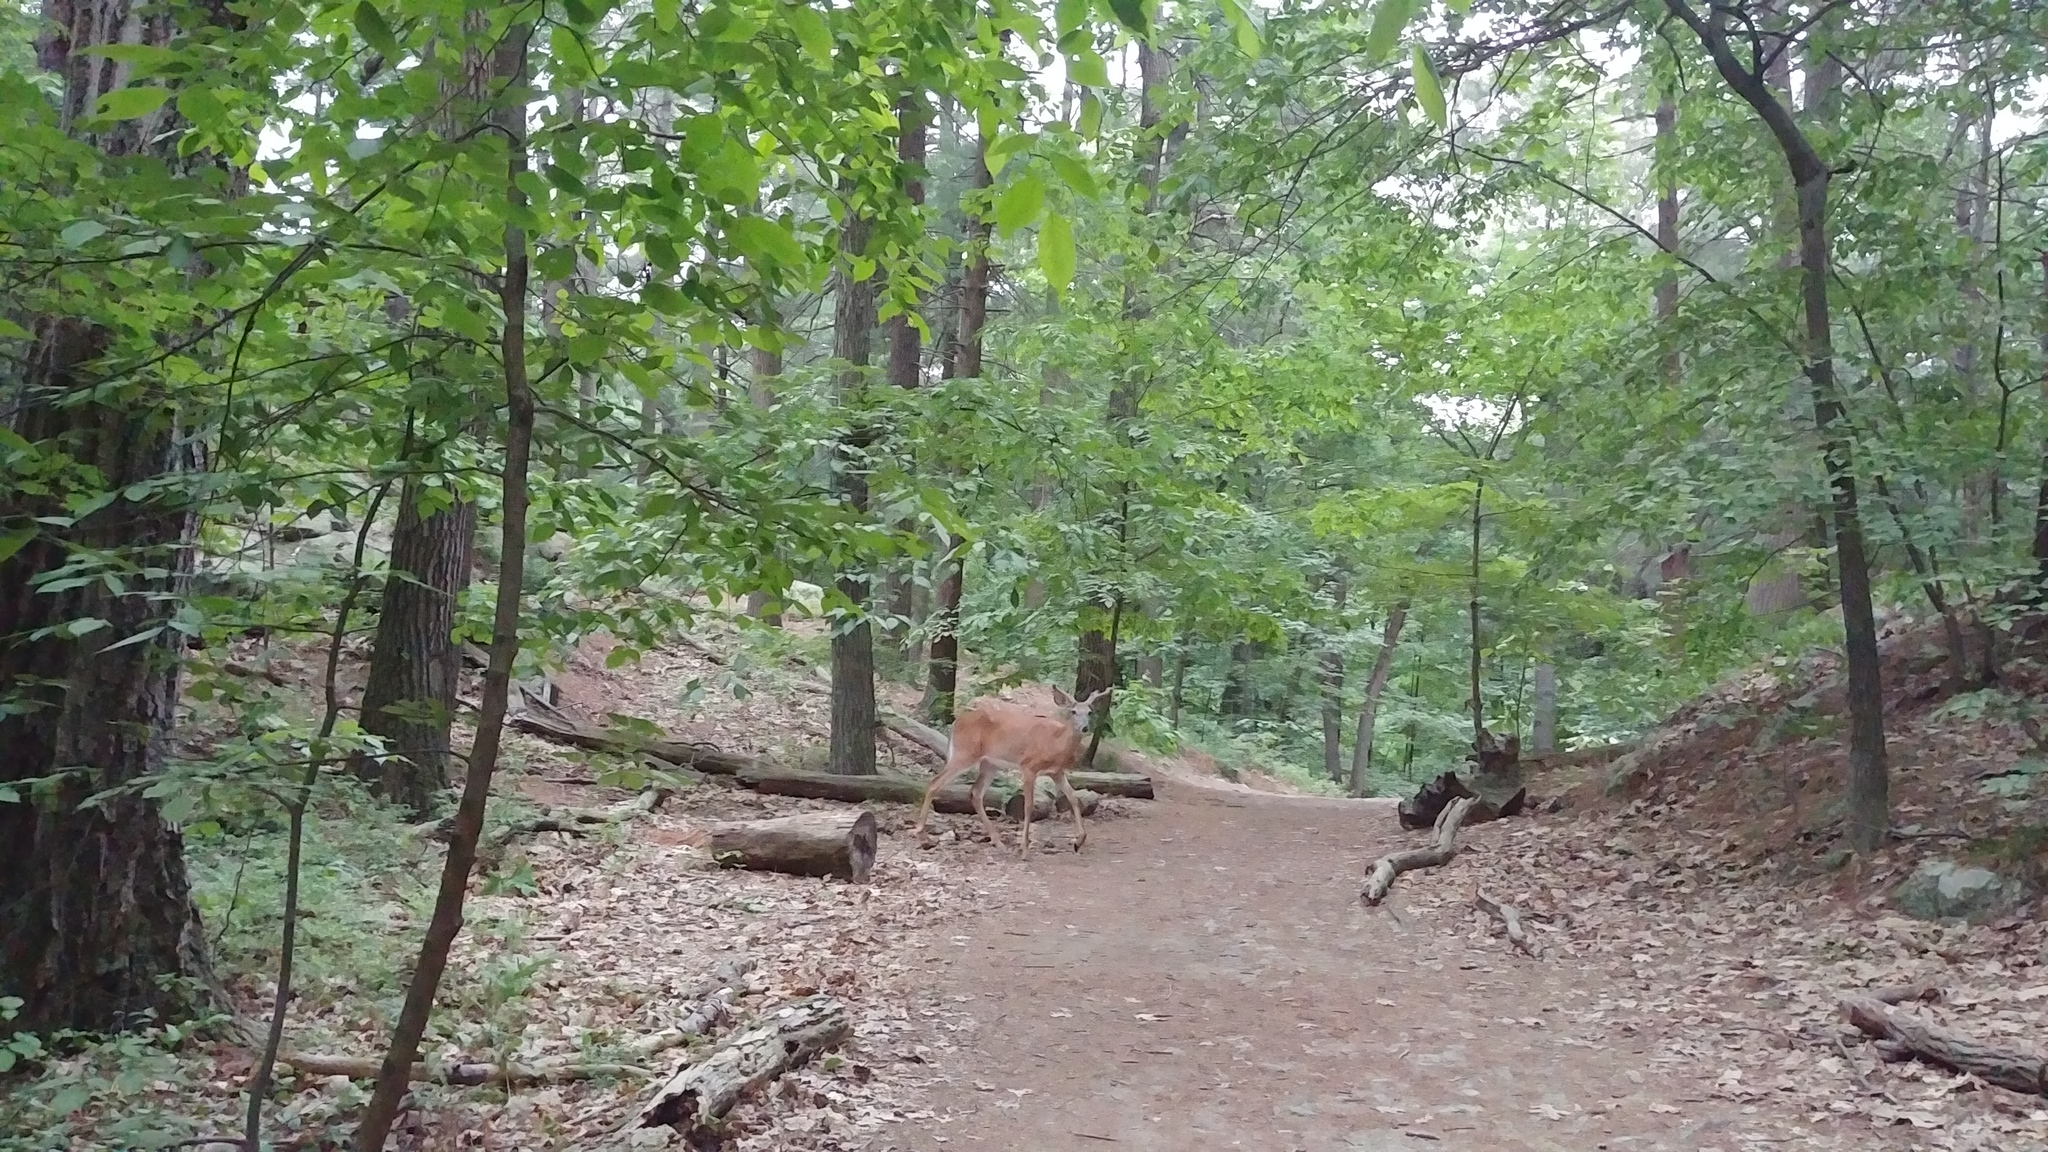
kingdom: Animalia
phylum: Chordata
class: Mammalia
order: Artiodactyla
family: Cervidae
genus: Odocoileus
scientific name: Odocoileus virginianus
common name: White-tailed deer
